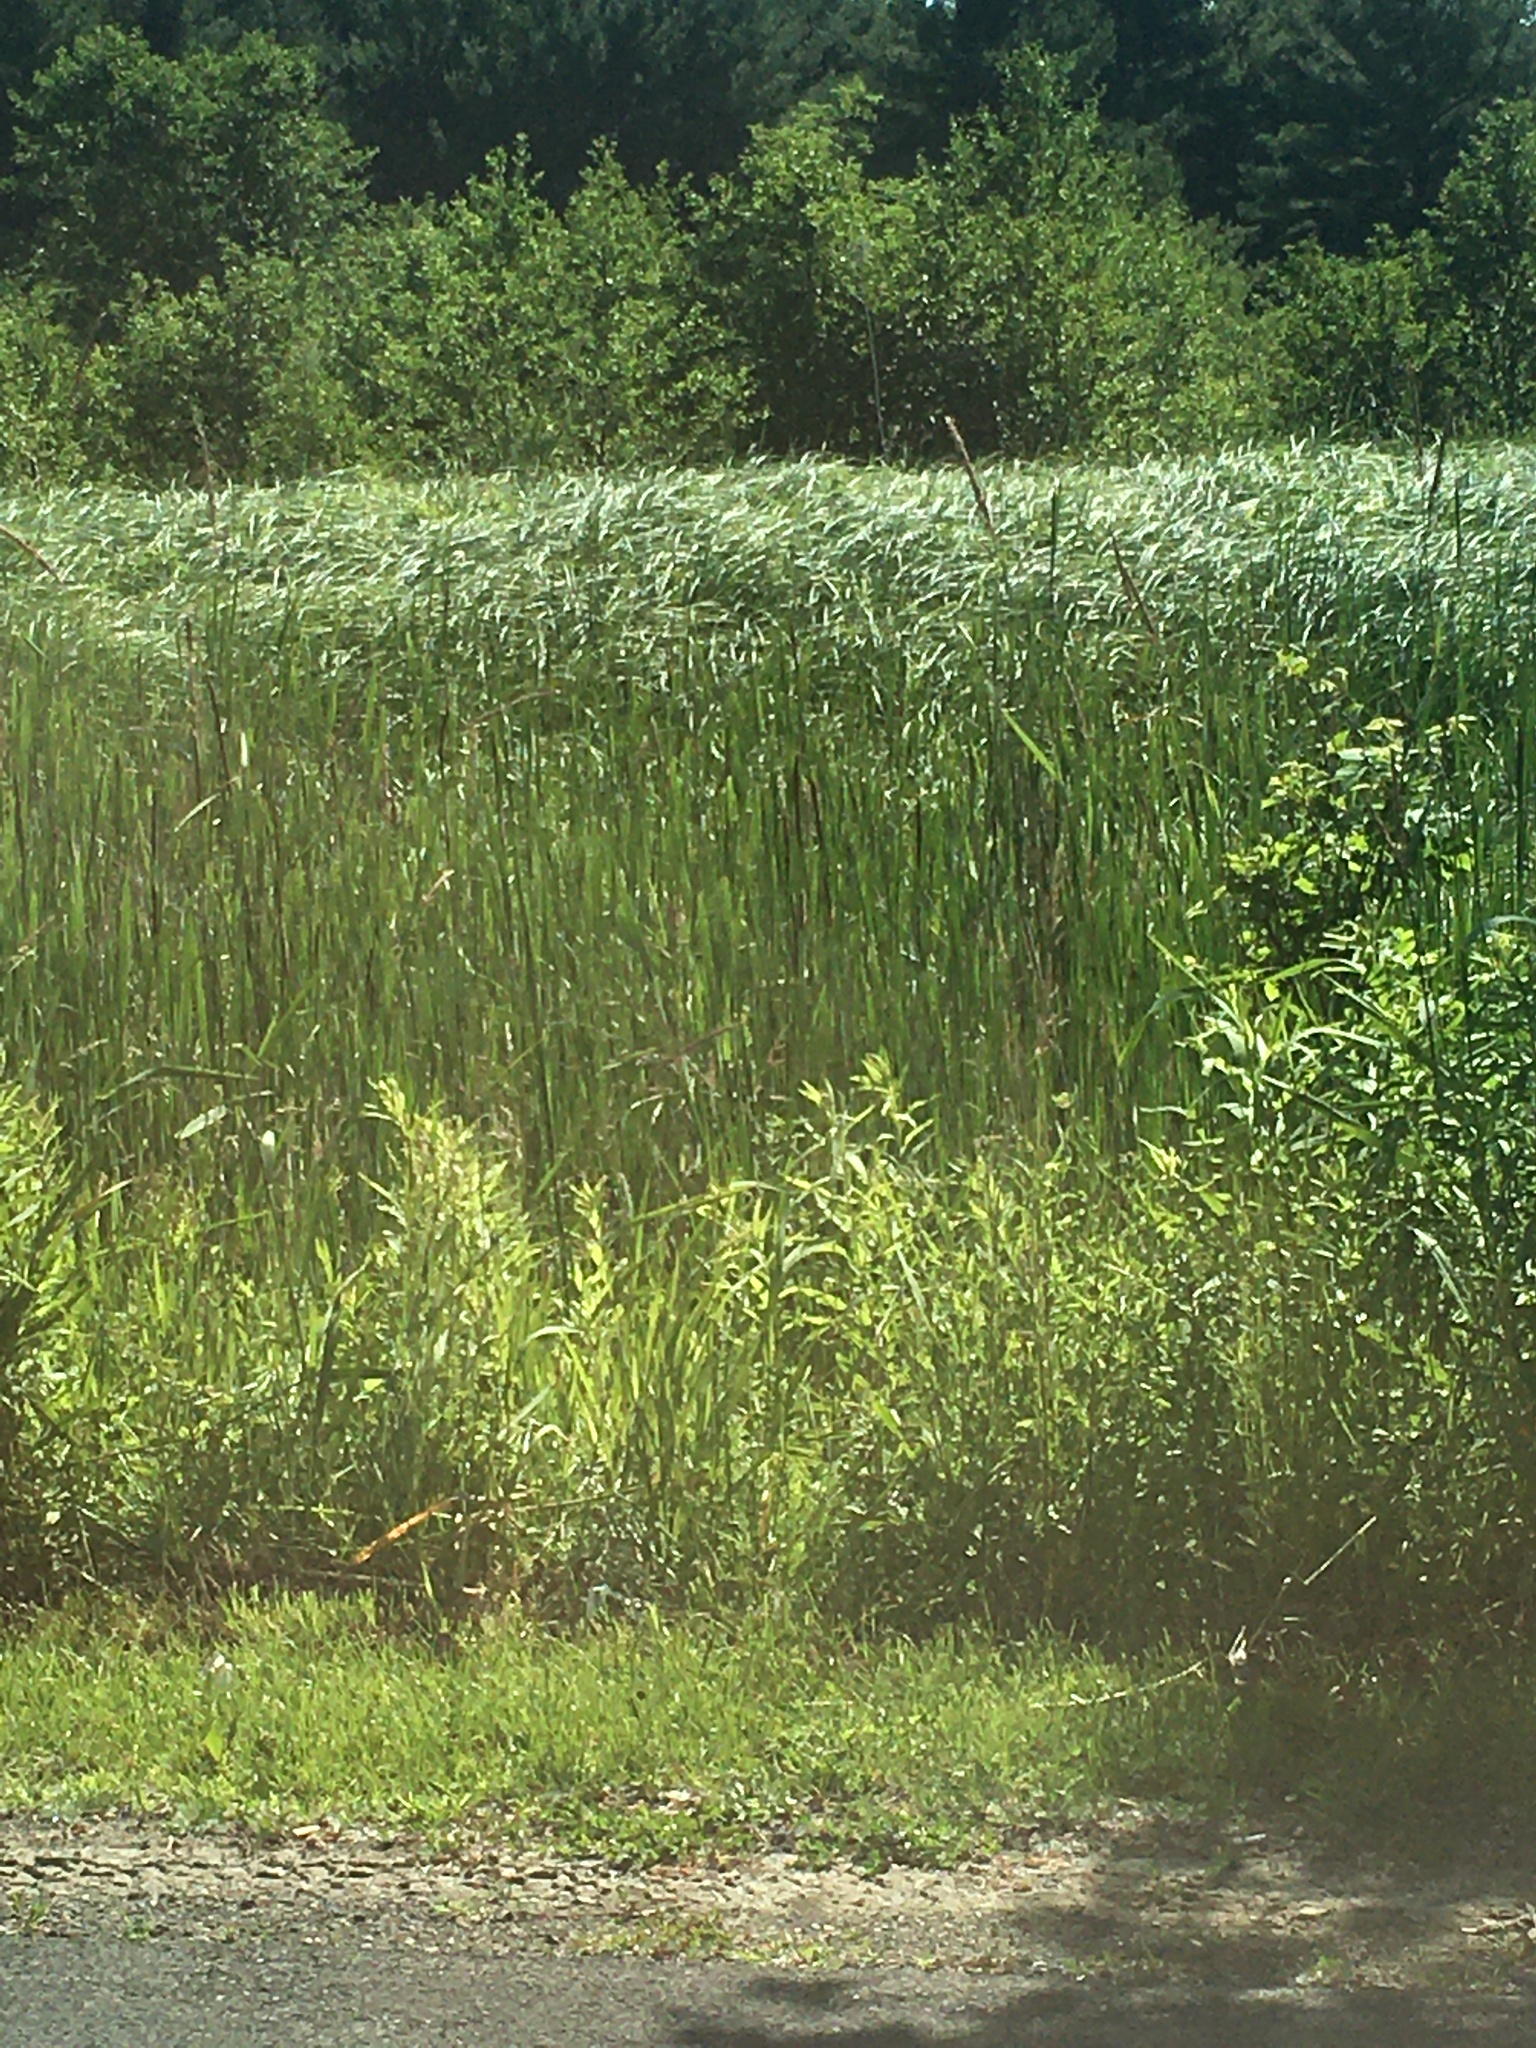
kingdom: Plantae
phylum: Tracheophyta
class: Liliopsida
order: Poales
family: Typhaceae
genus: Typha
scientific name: Typha angustifolia
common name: Lesser bulrush
